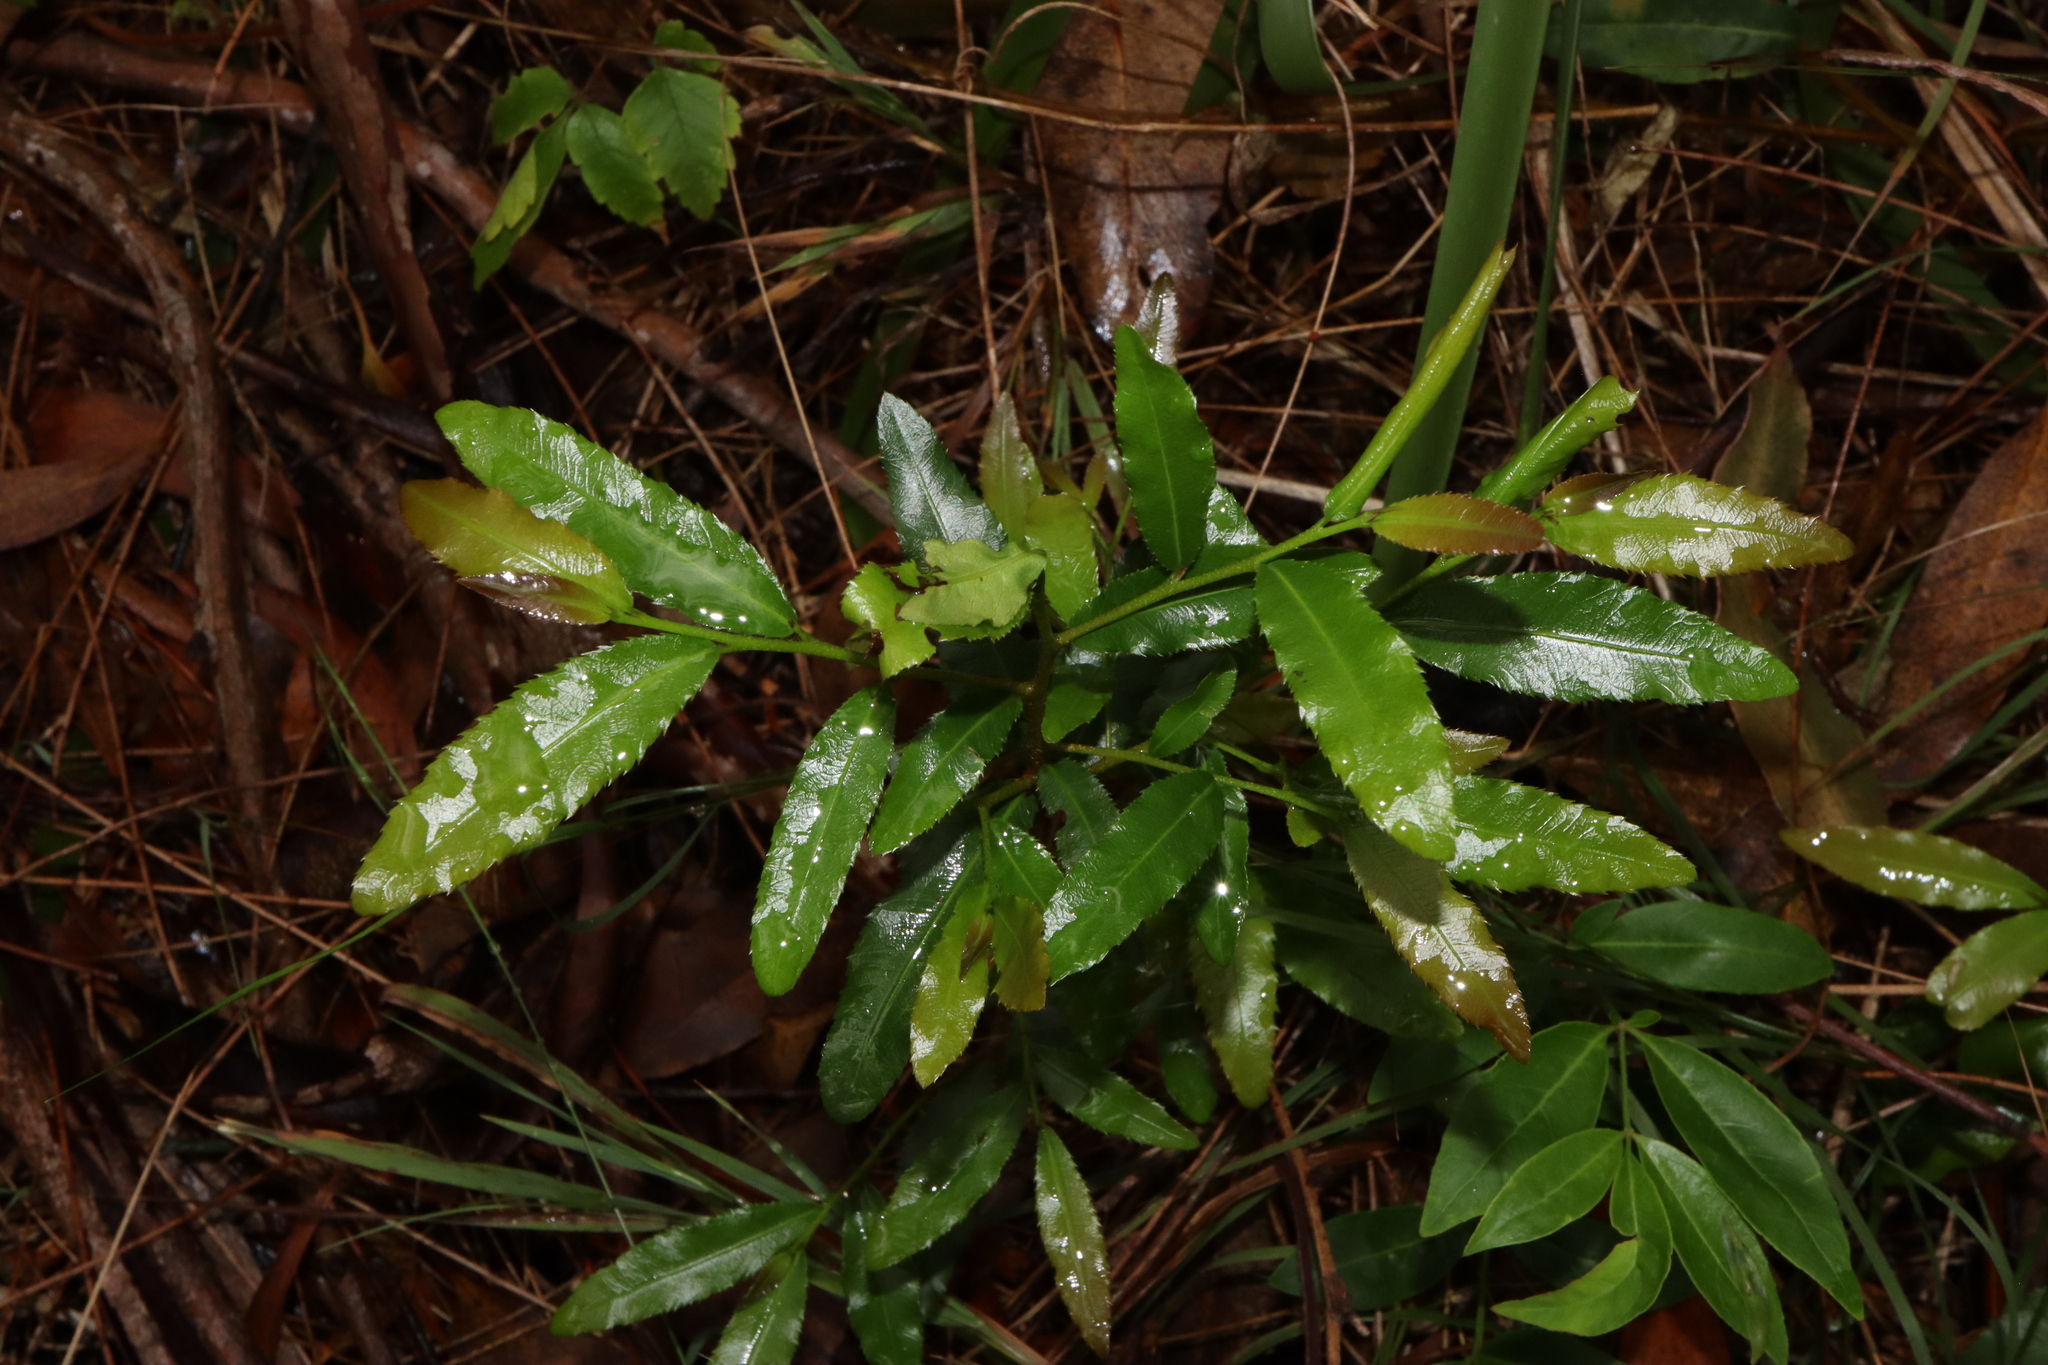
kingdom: Plantae
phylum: Tracheophyta
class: Magnoliopsida
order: Malpighiales
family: Ochnaceae
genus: Ochna
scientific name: Ochna serrulata
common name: Mickey mouse plant
